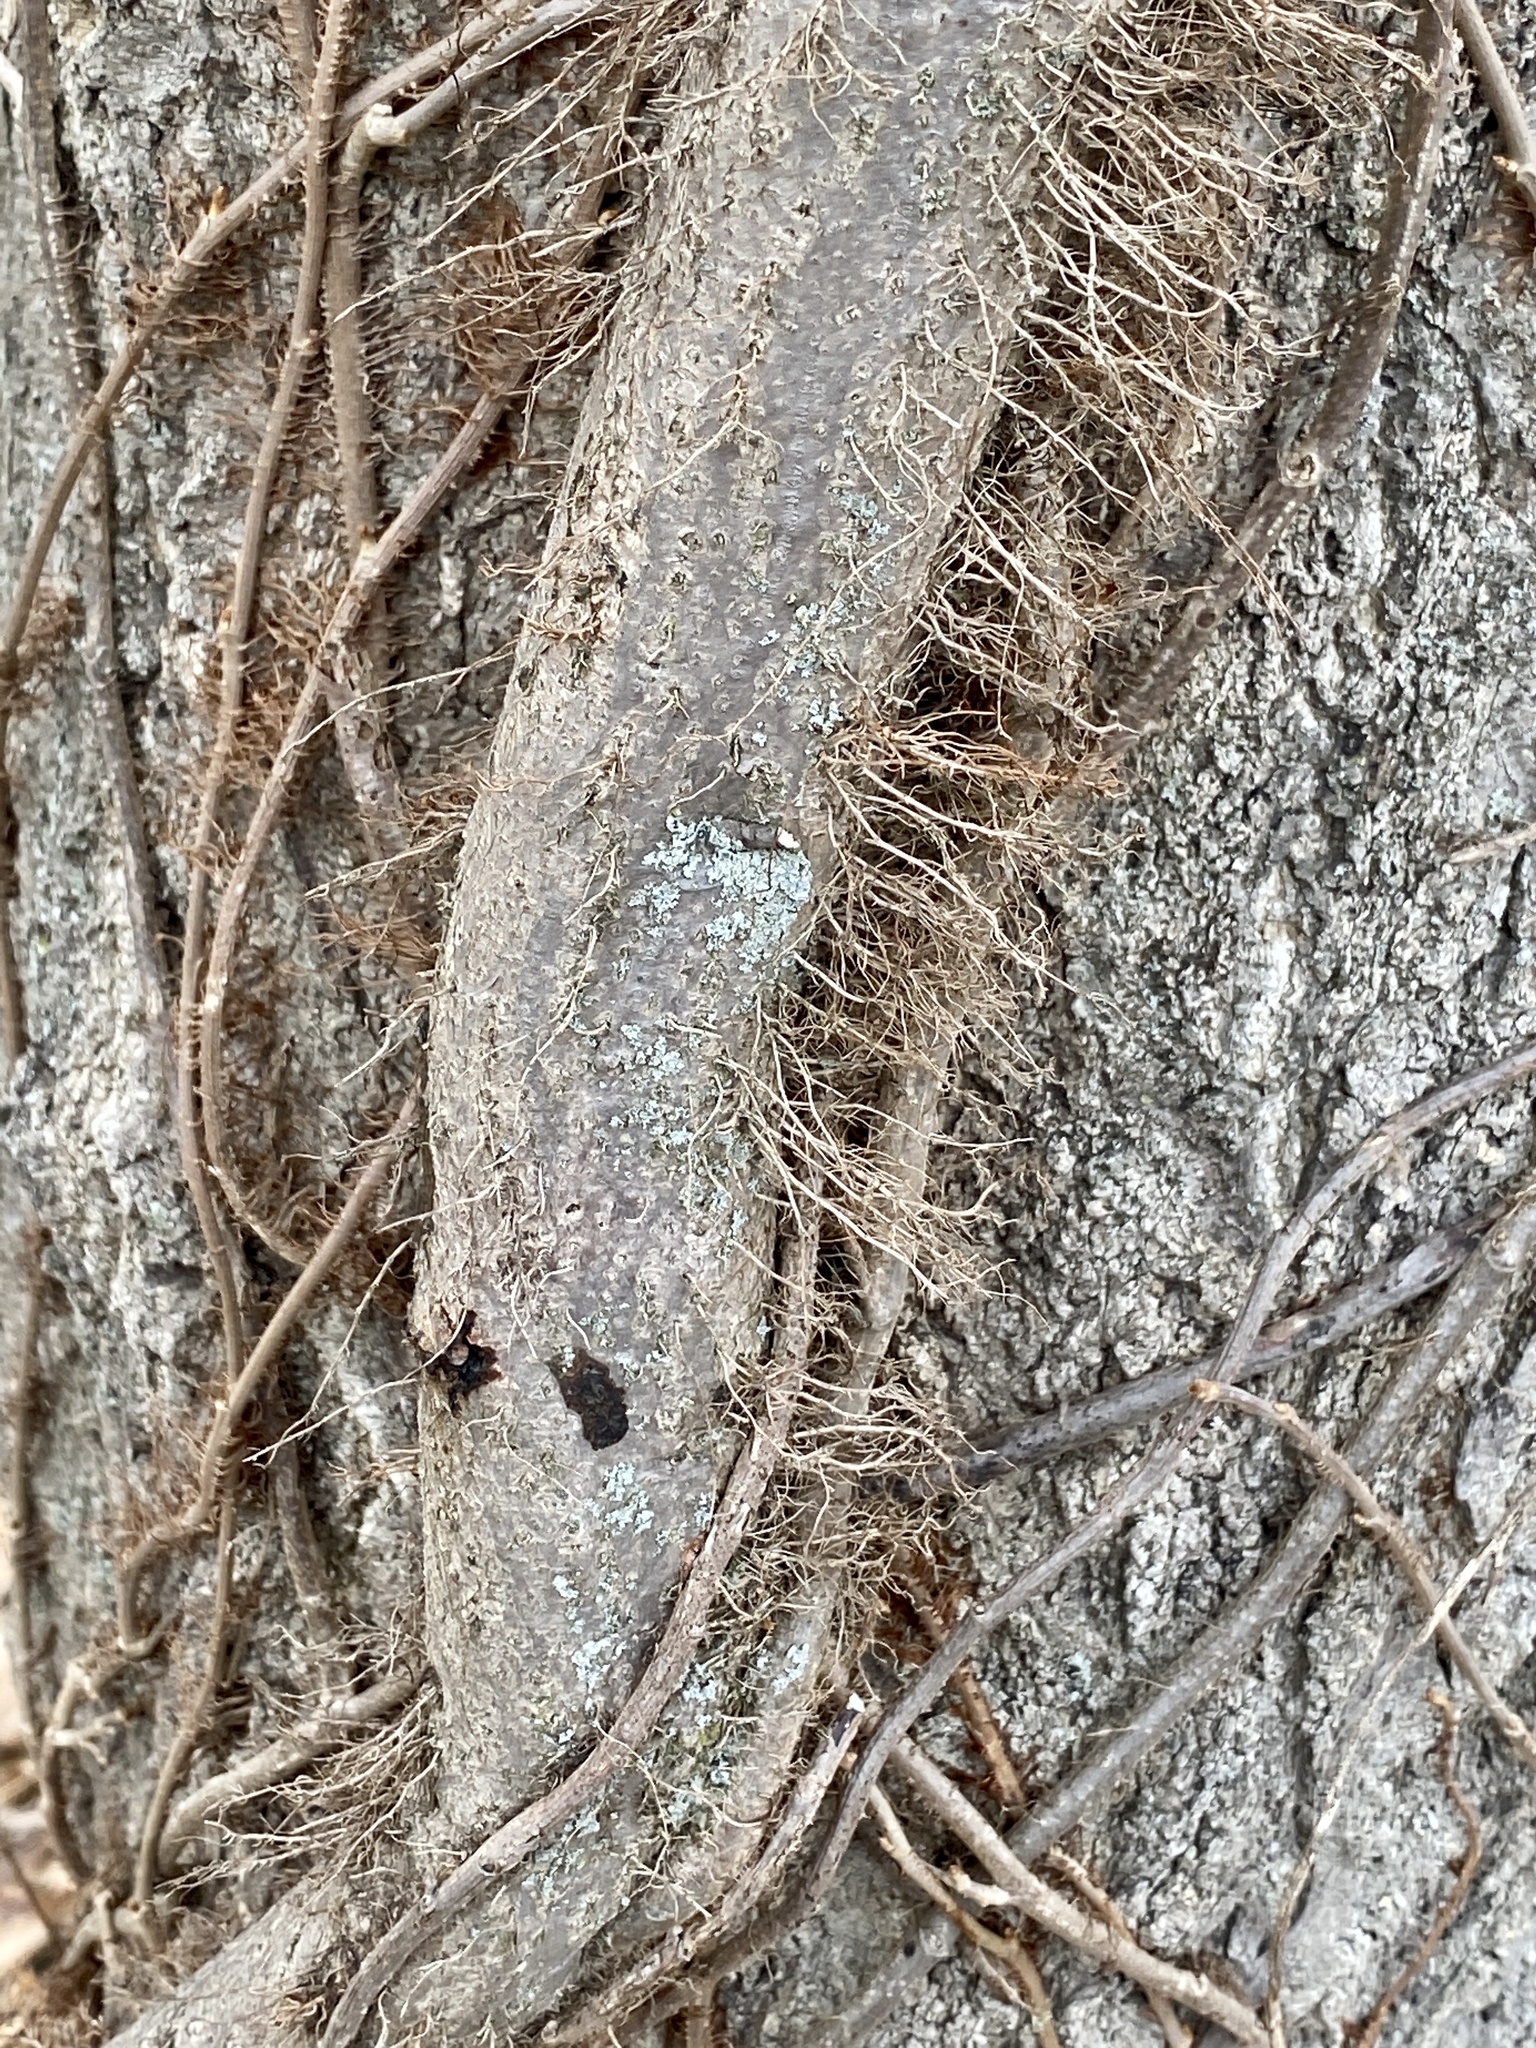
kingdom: Plantae
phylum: Tracheophyta
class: Magnoliopsida
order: Sapindales
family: Anacardiaceae
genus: Toxicodendron
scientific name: Toxicodendron radicans
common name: Poison ivy
